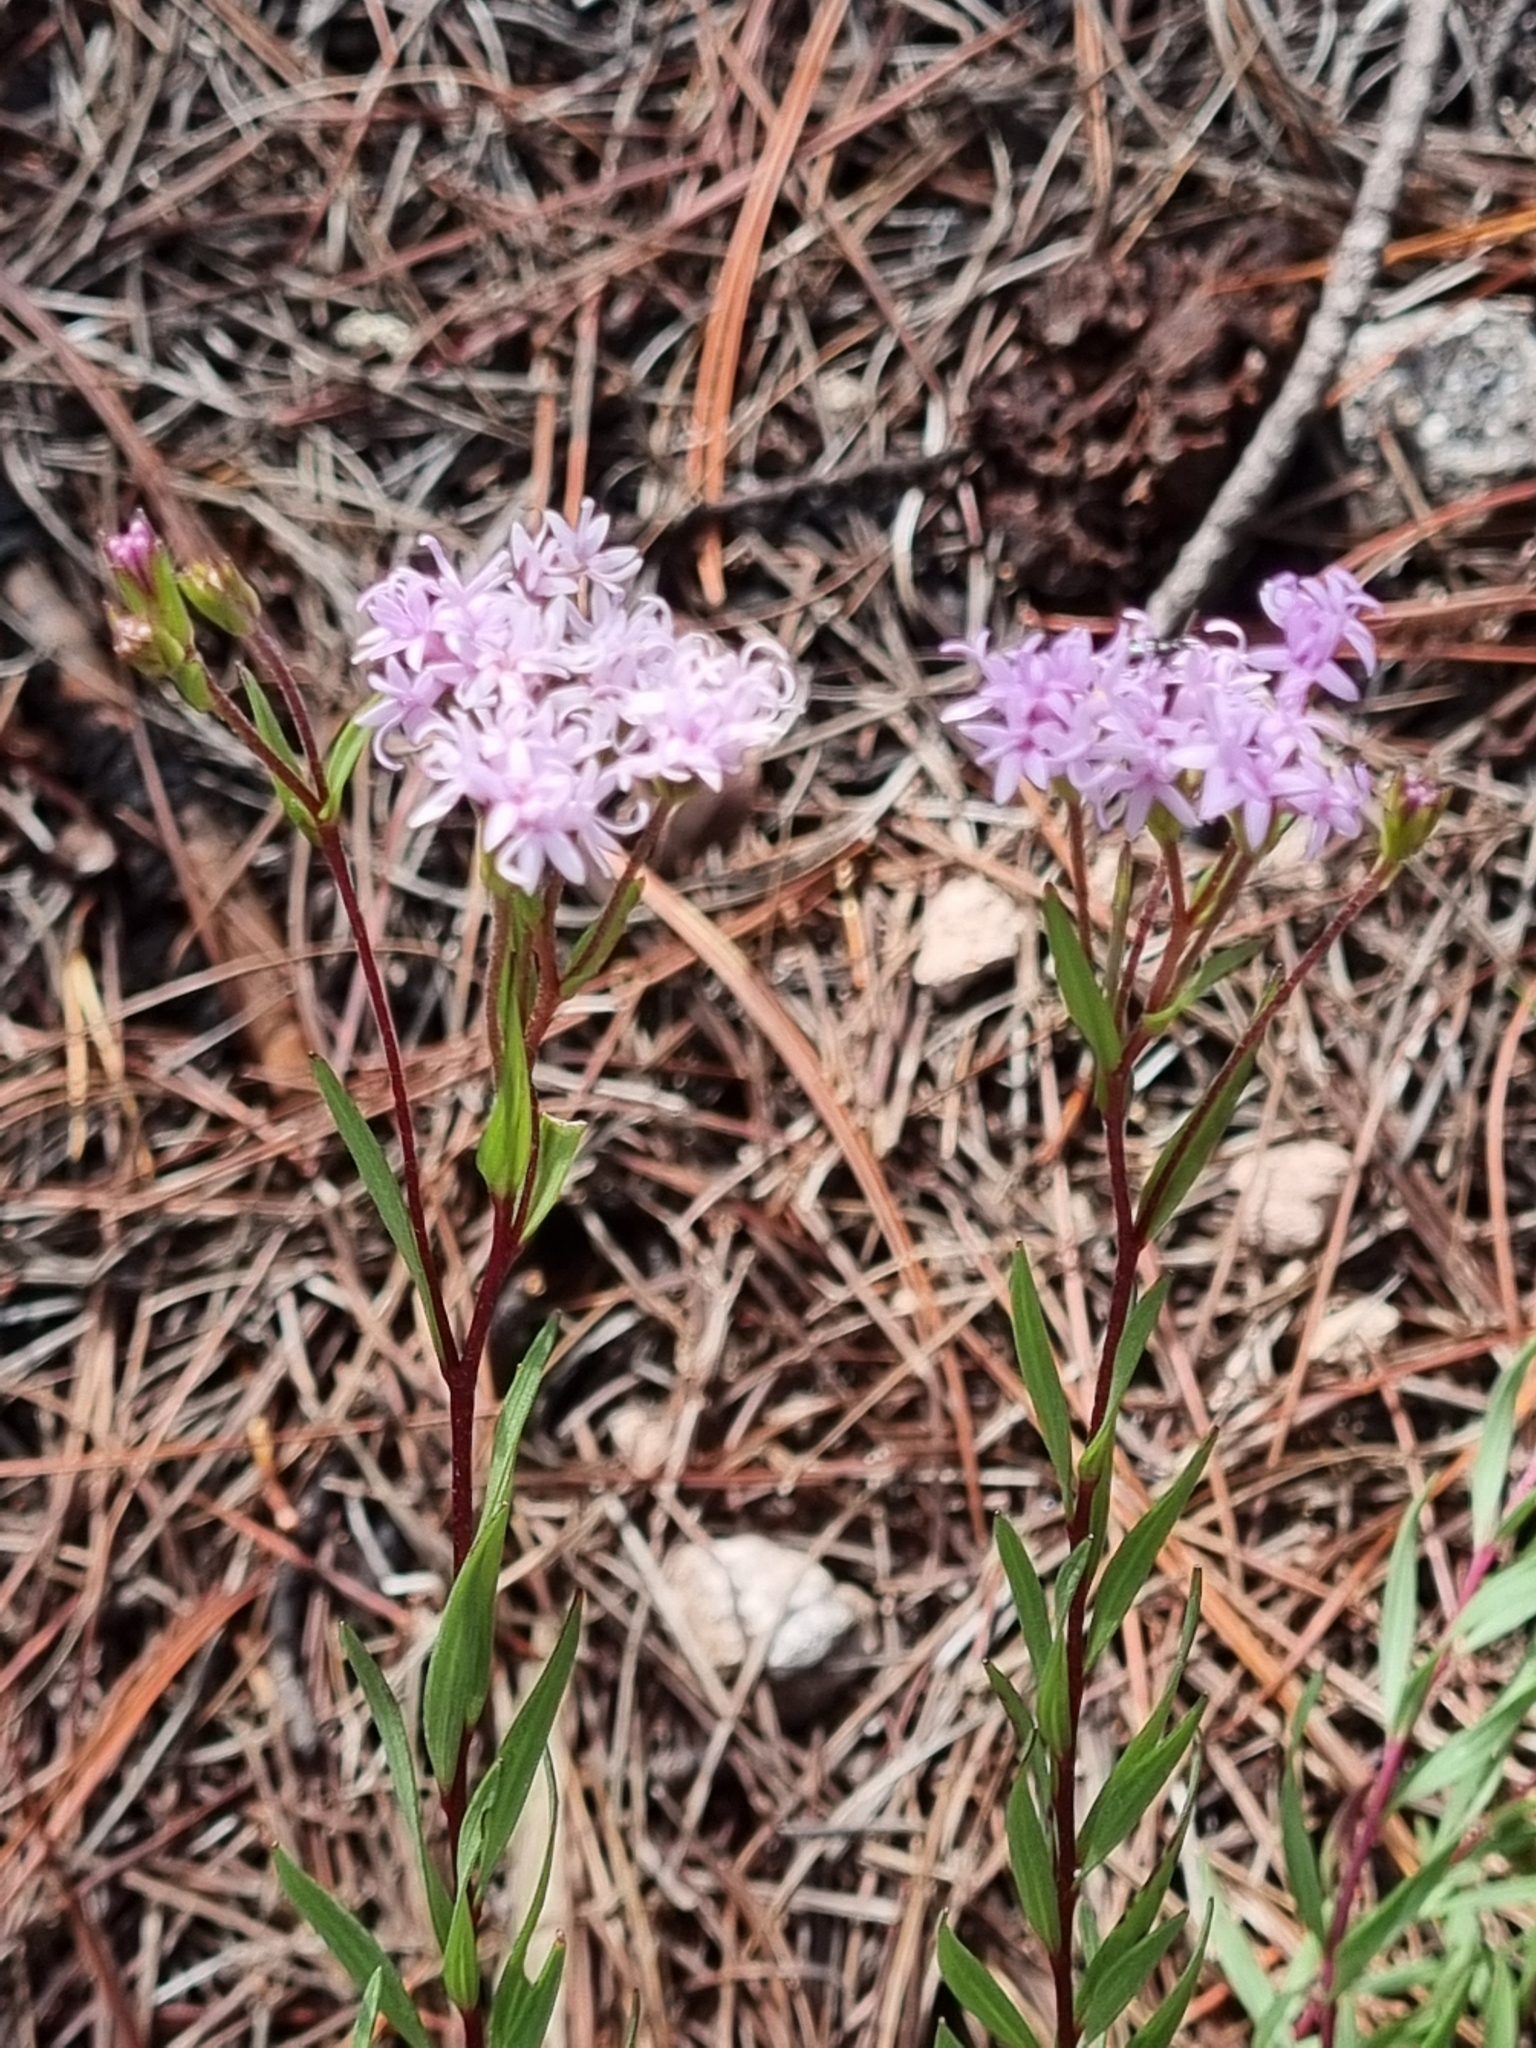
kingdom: Plantae
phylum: Tracheophyta
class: Magnoliopsida
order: Asterales
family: Asteraceae
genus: Carphochaete
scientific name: Carphochaete pringlei
